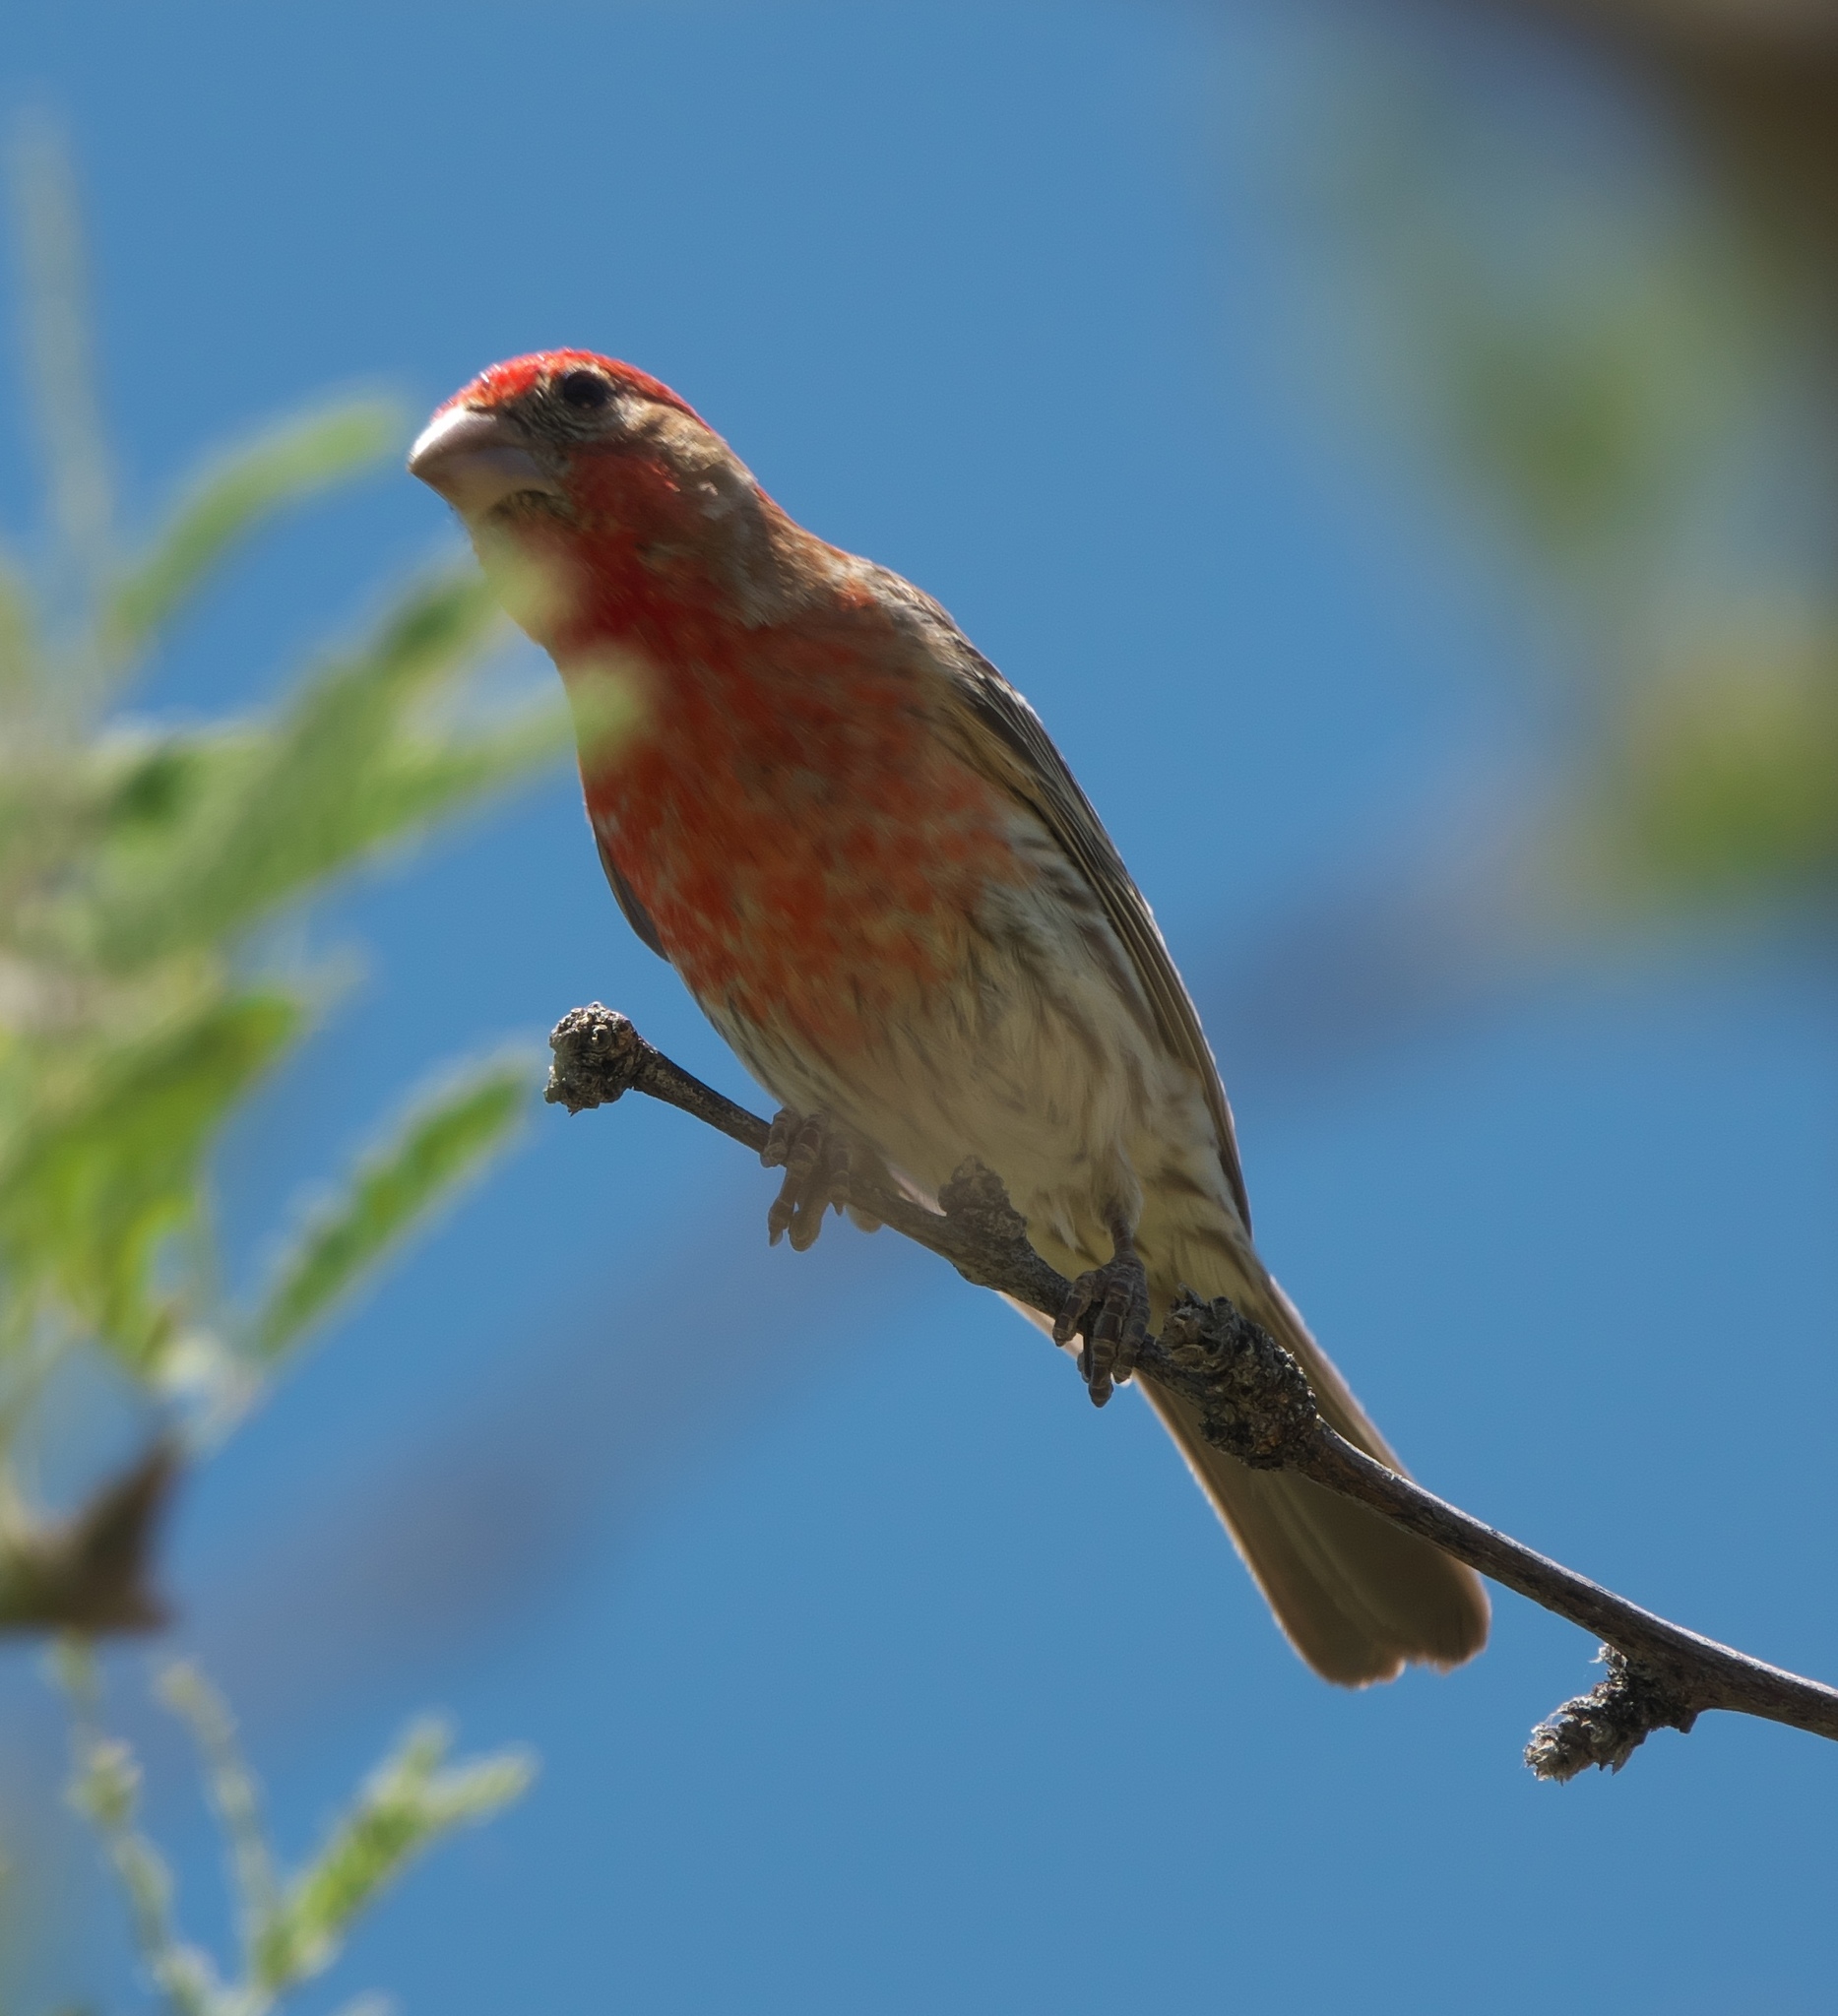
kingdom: Animalia
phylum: Chordata
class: Aves
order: Passeriformes
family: Fringillidae
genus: Haemorhous
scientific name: Haemorhous mexicanus
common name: House finch
